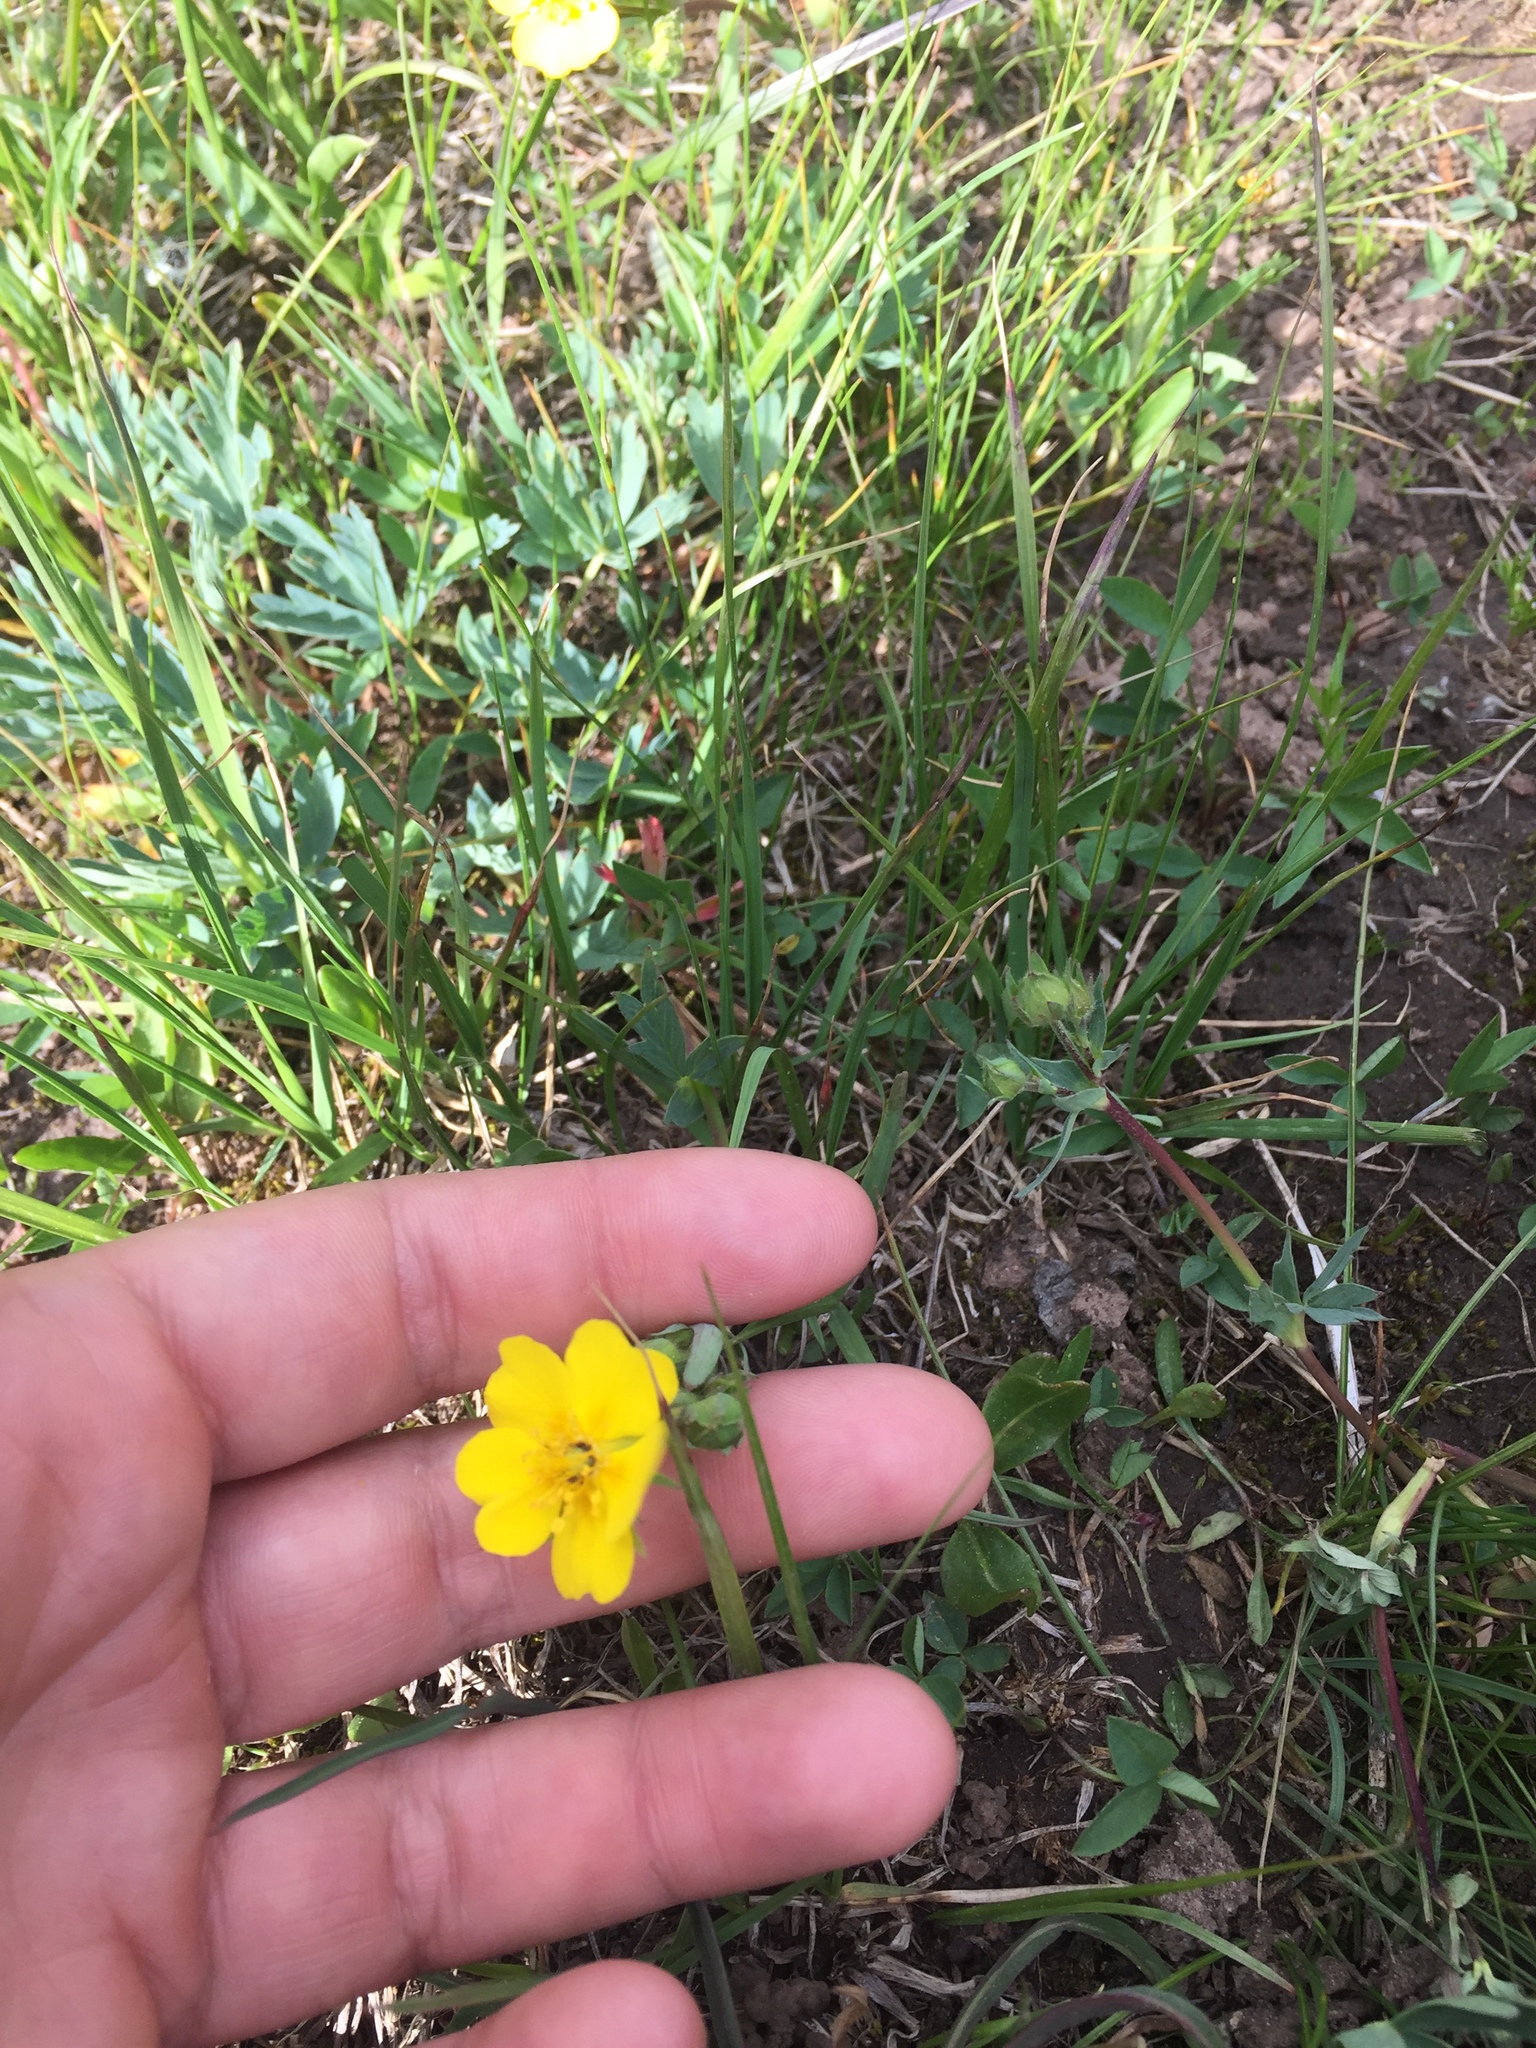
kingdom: Plantae
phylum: Tracheophyta
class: Magnoliopsida
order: Rosales
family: Rosaceae
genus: Potentilla
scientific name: Potentilla gracilis
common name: Graceful cinquefoil
